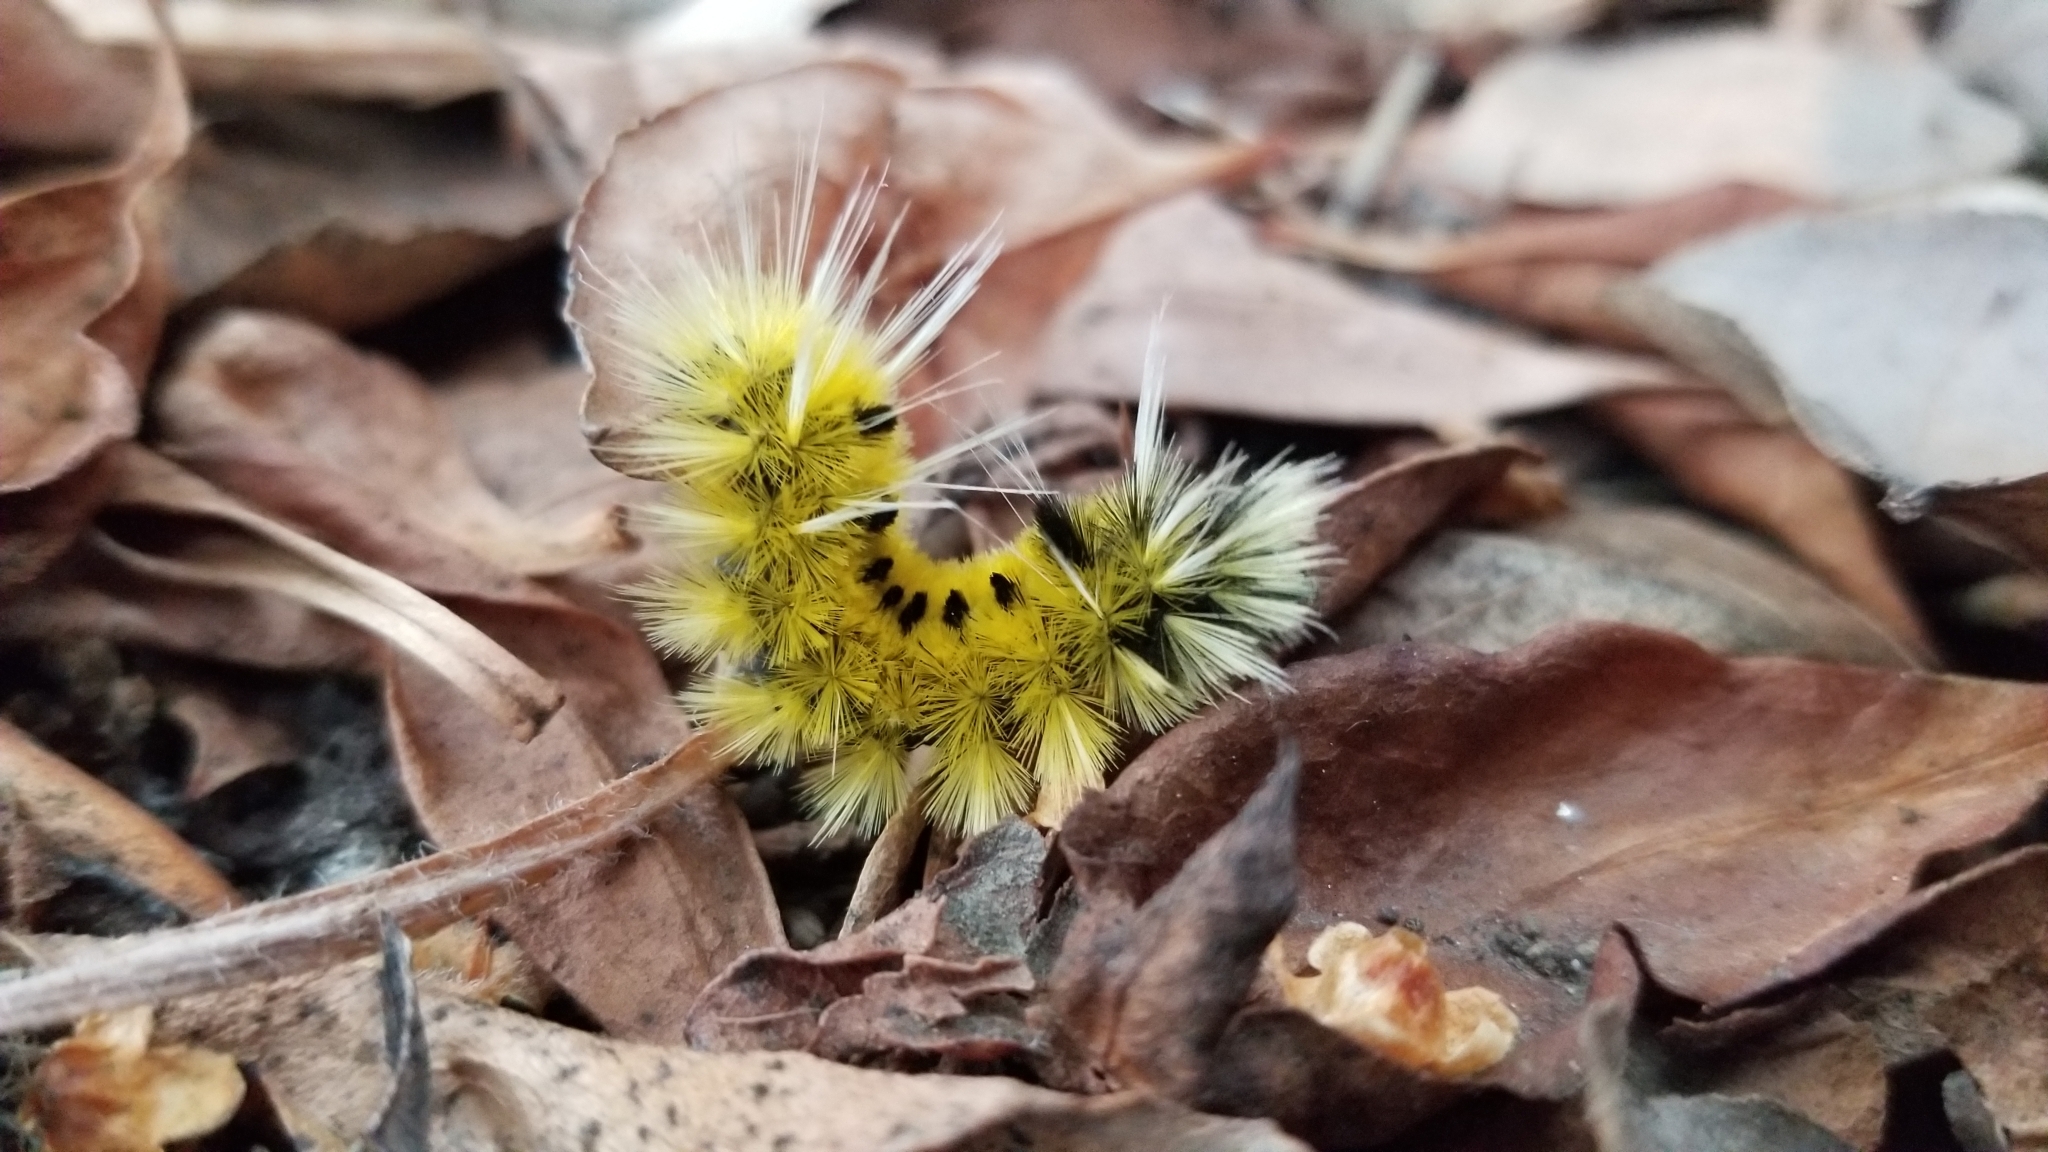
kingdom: Animalia
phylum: Arthropoda
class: Insecta
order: Lepidoptera
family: Erebidae
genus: Lophocampa
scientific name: Lophocampa maculata
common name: Spotted tussock moth
